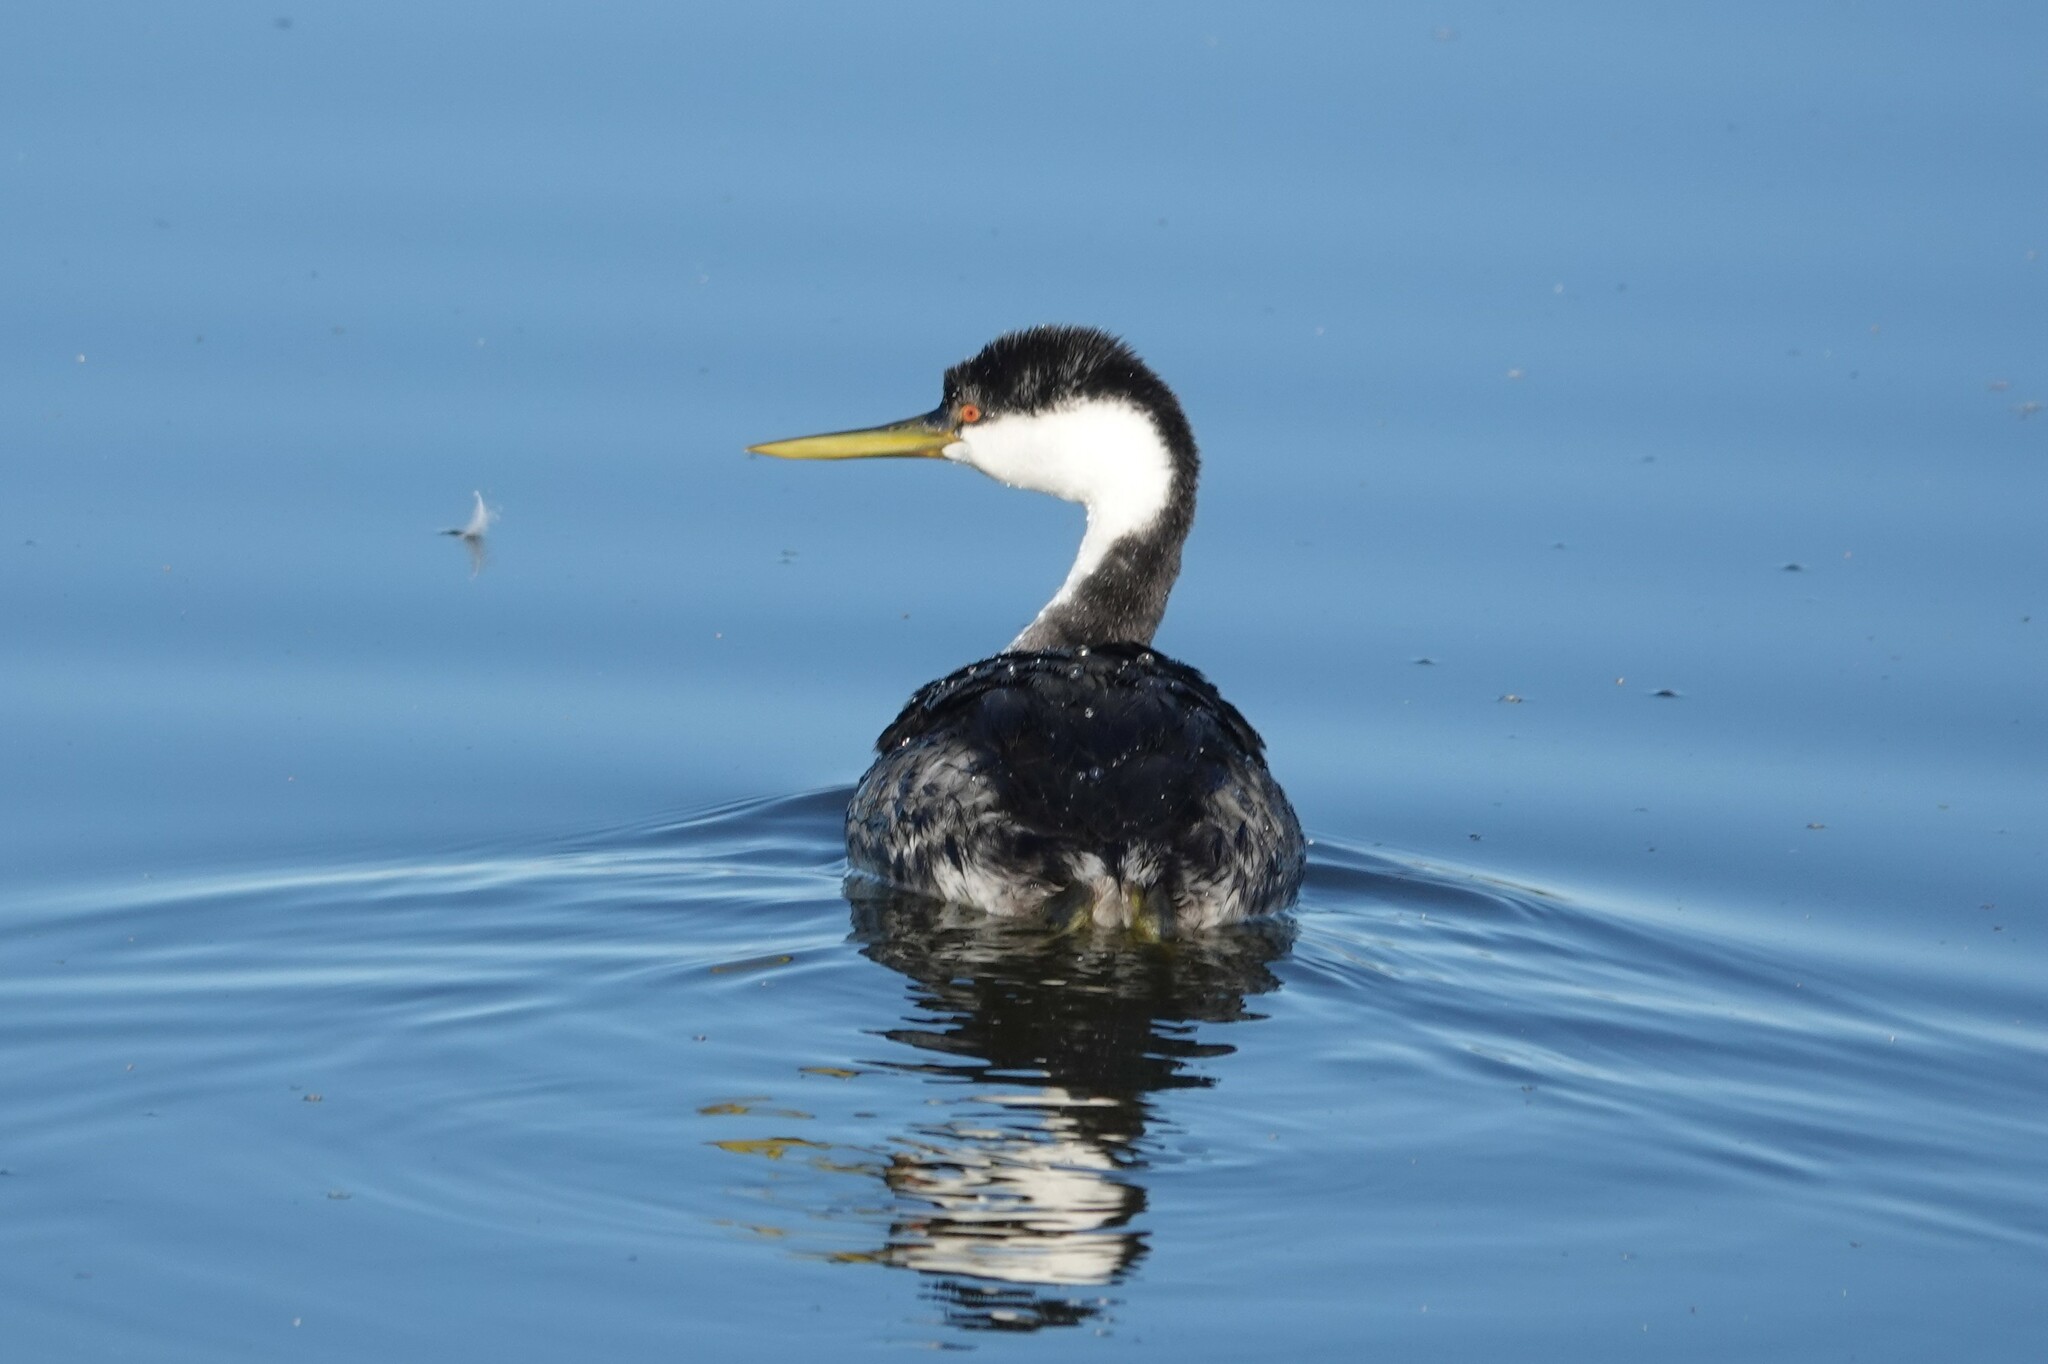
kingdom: Animalia
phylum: Chordata
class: Aves
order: Podicipediformes
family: Podicipedidae
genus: Aechmophorus
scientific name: Aechmophorus occidentalis
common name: Western grebe
